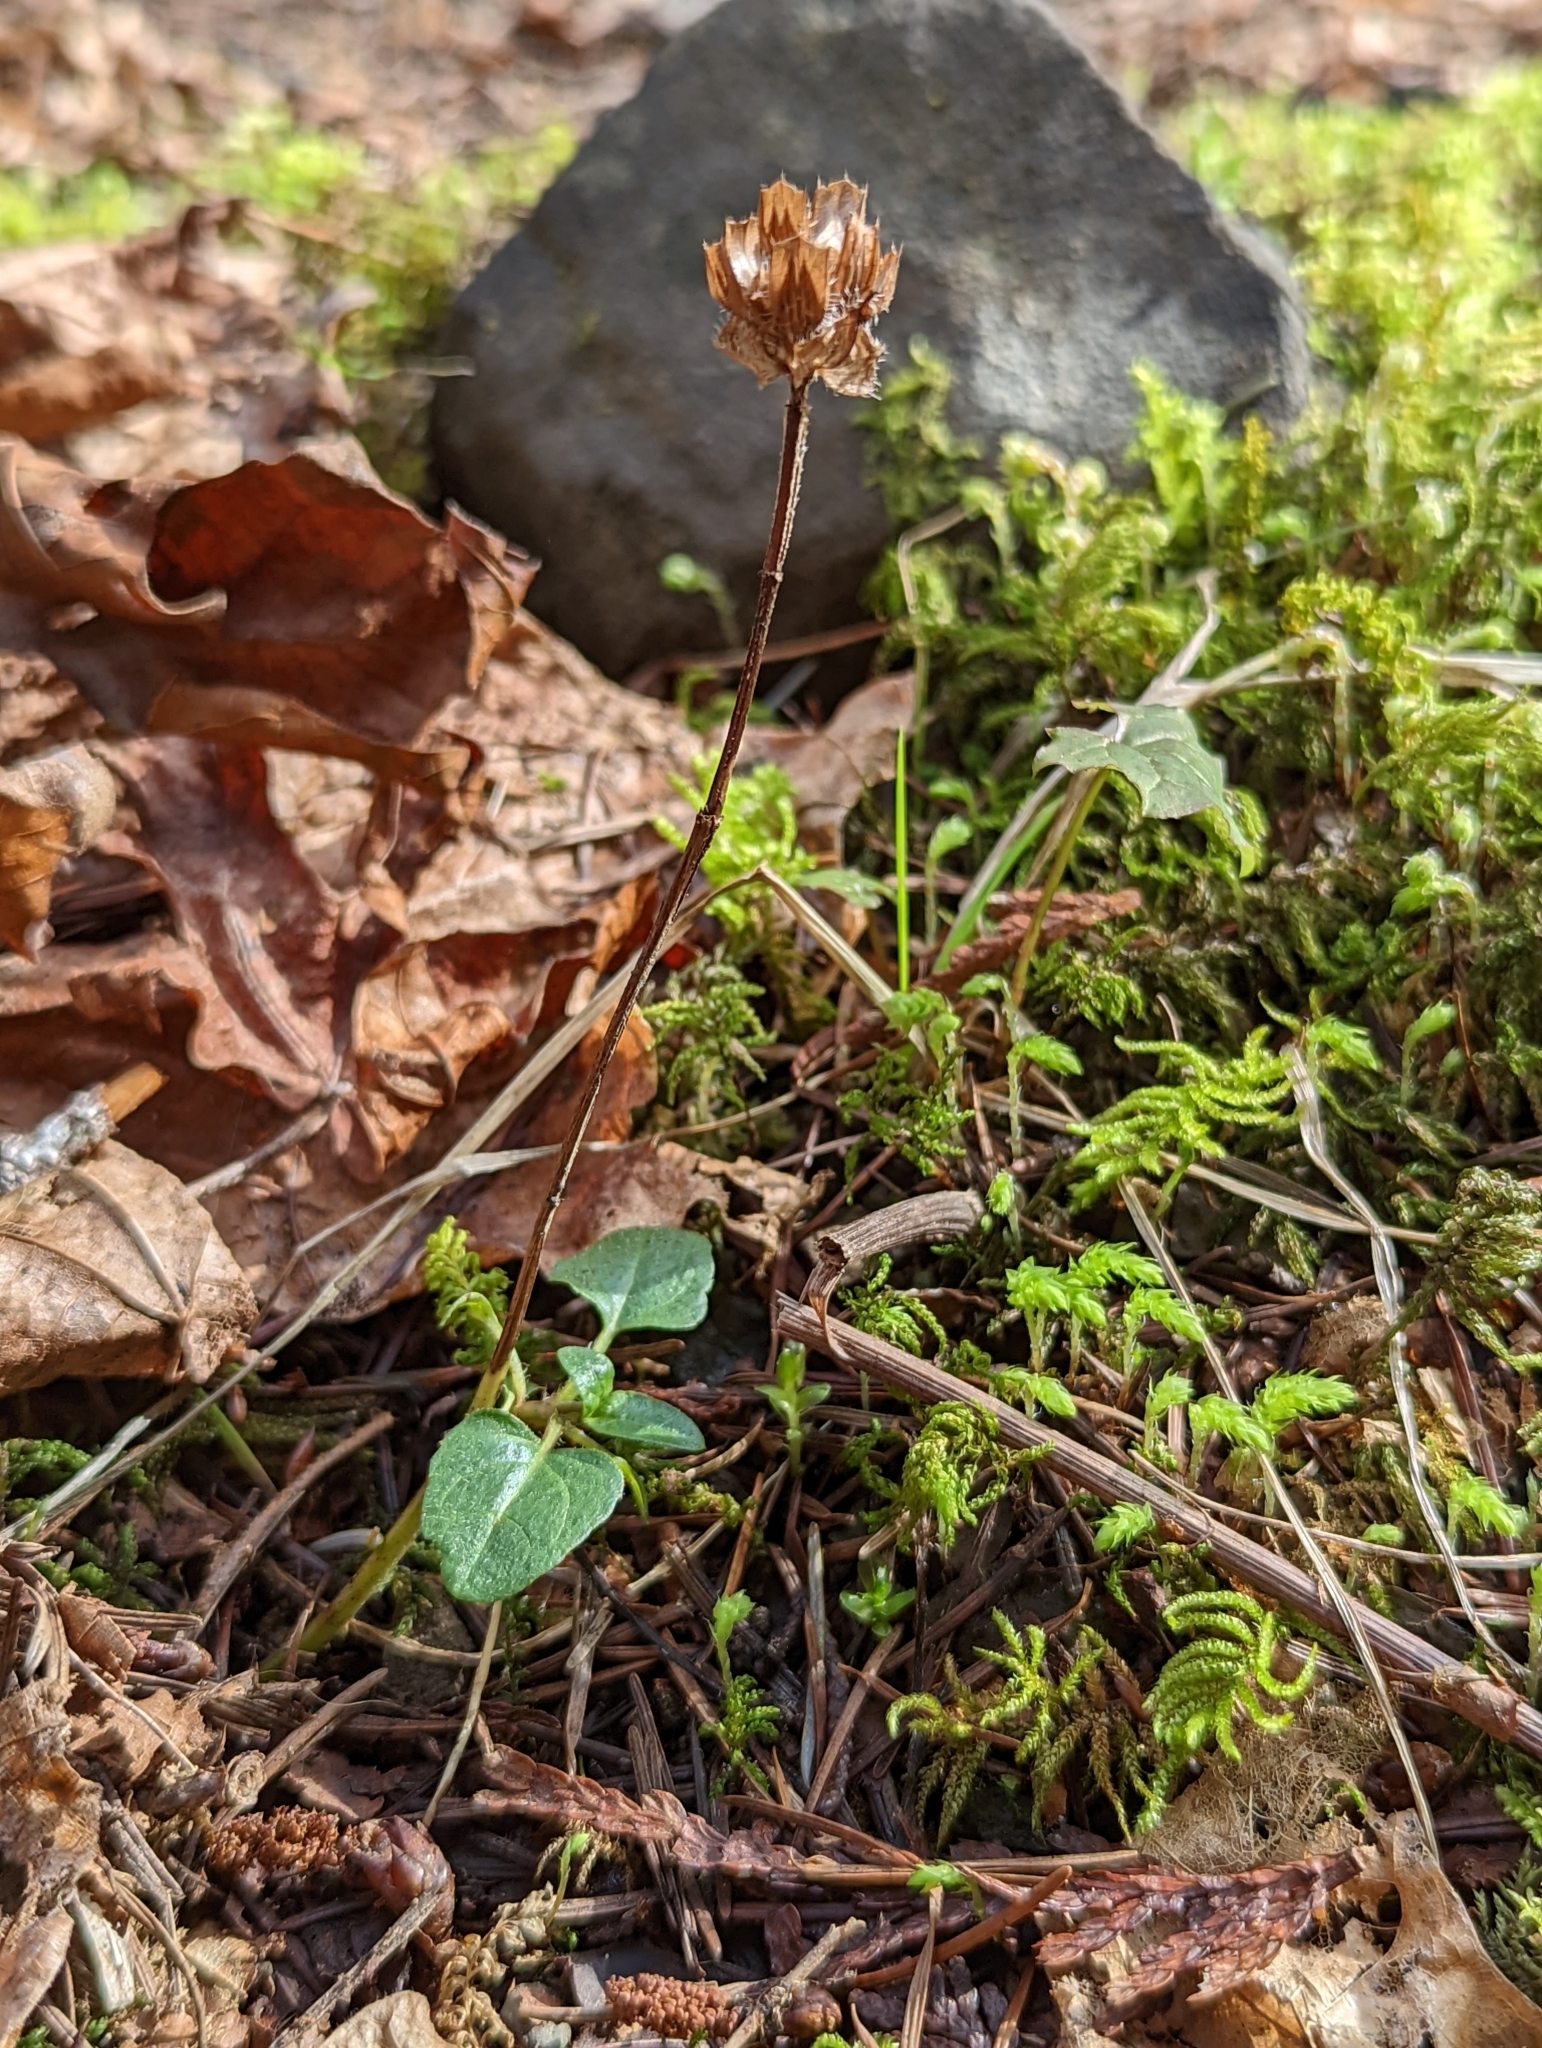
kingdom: Plantae
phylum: Tracheophyta
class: Magnoliopsida
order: Lamiales
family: Lamiaceae
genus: Prunella
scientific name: Prunella vulgaris
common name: Heal-all
